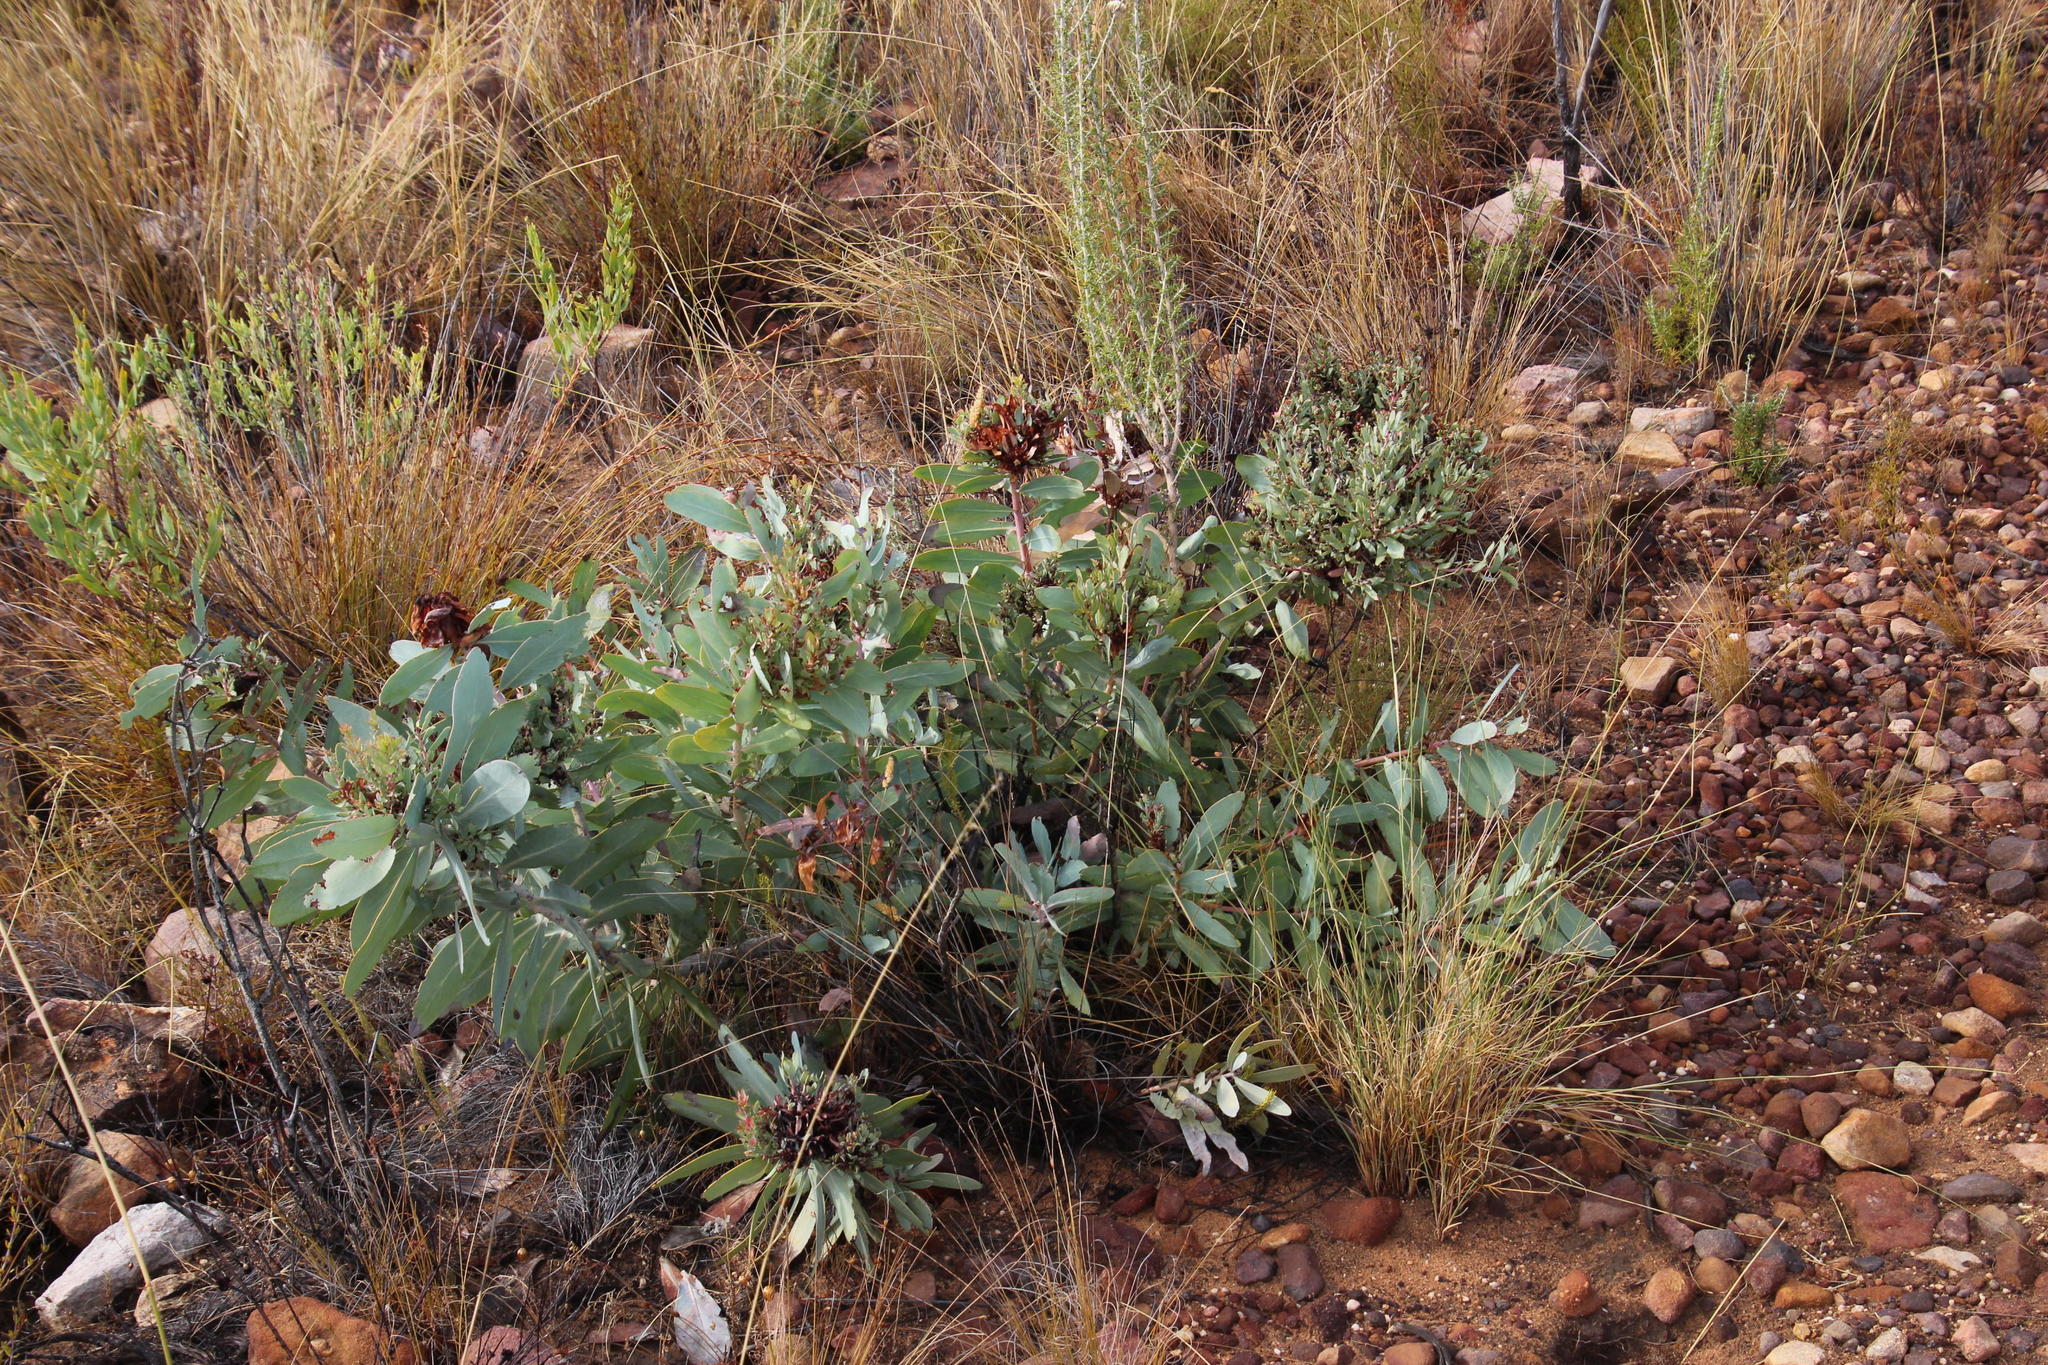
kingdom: Plantae
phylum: Tracheophyta
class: Magnoliopsida
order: Proteales
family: Proteaceae
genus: Protea
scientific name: Protea nitida
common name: Tree protea
